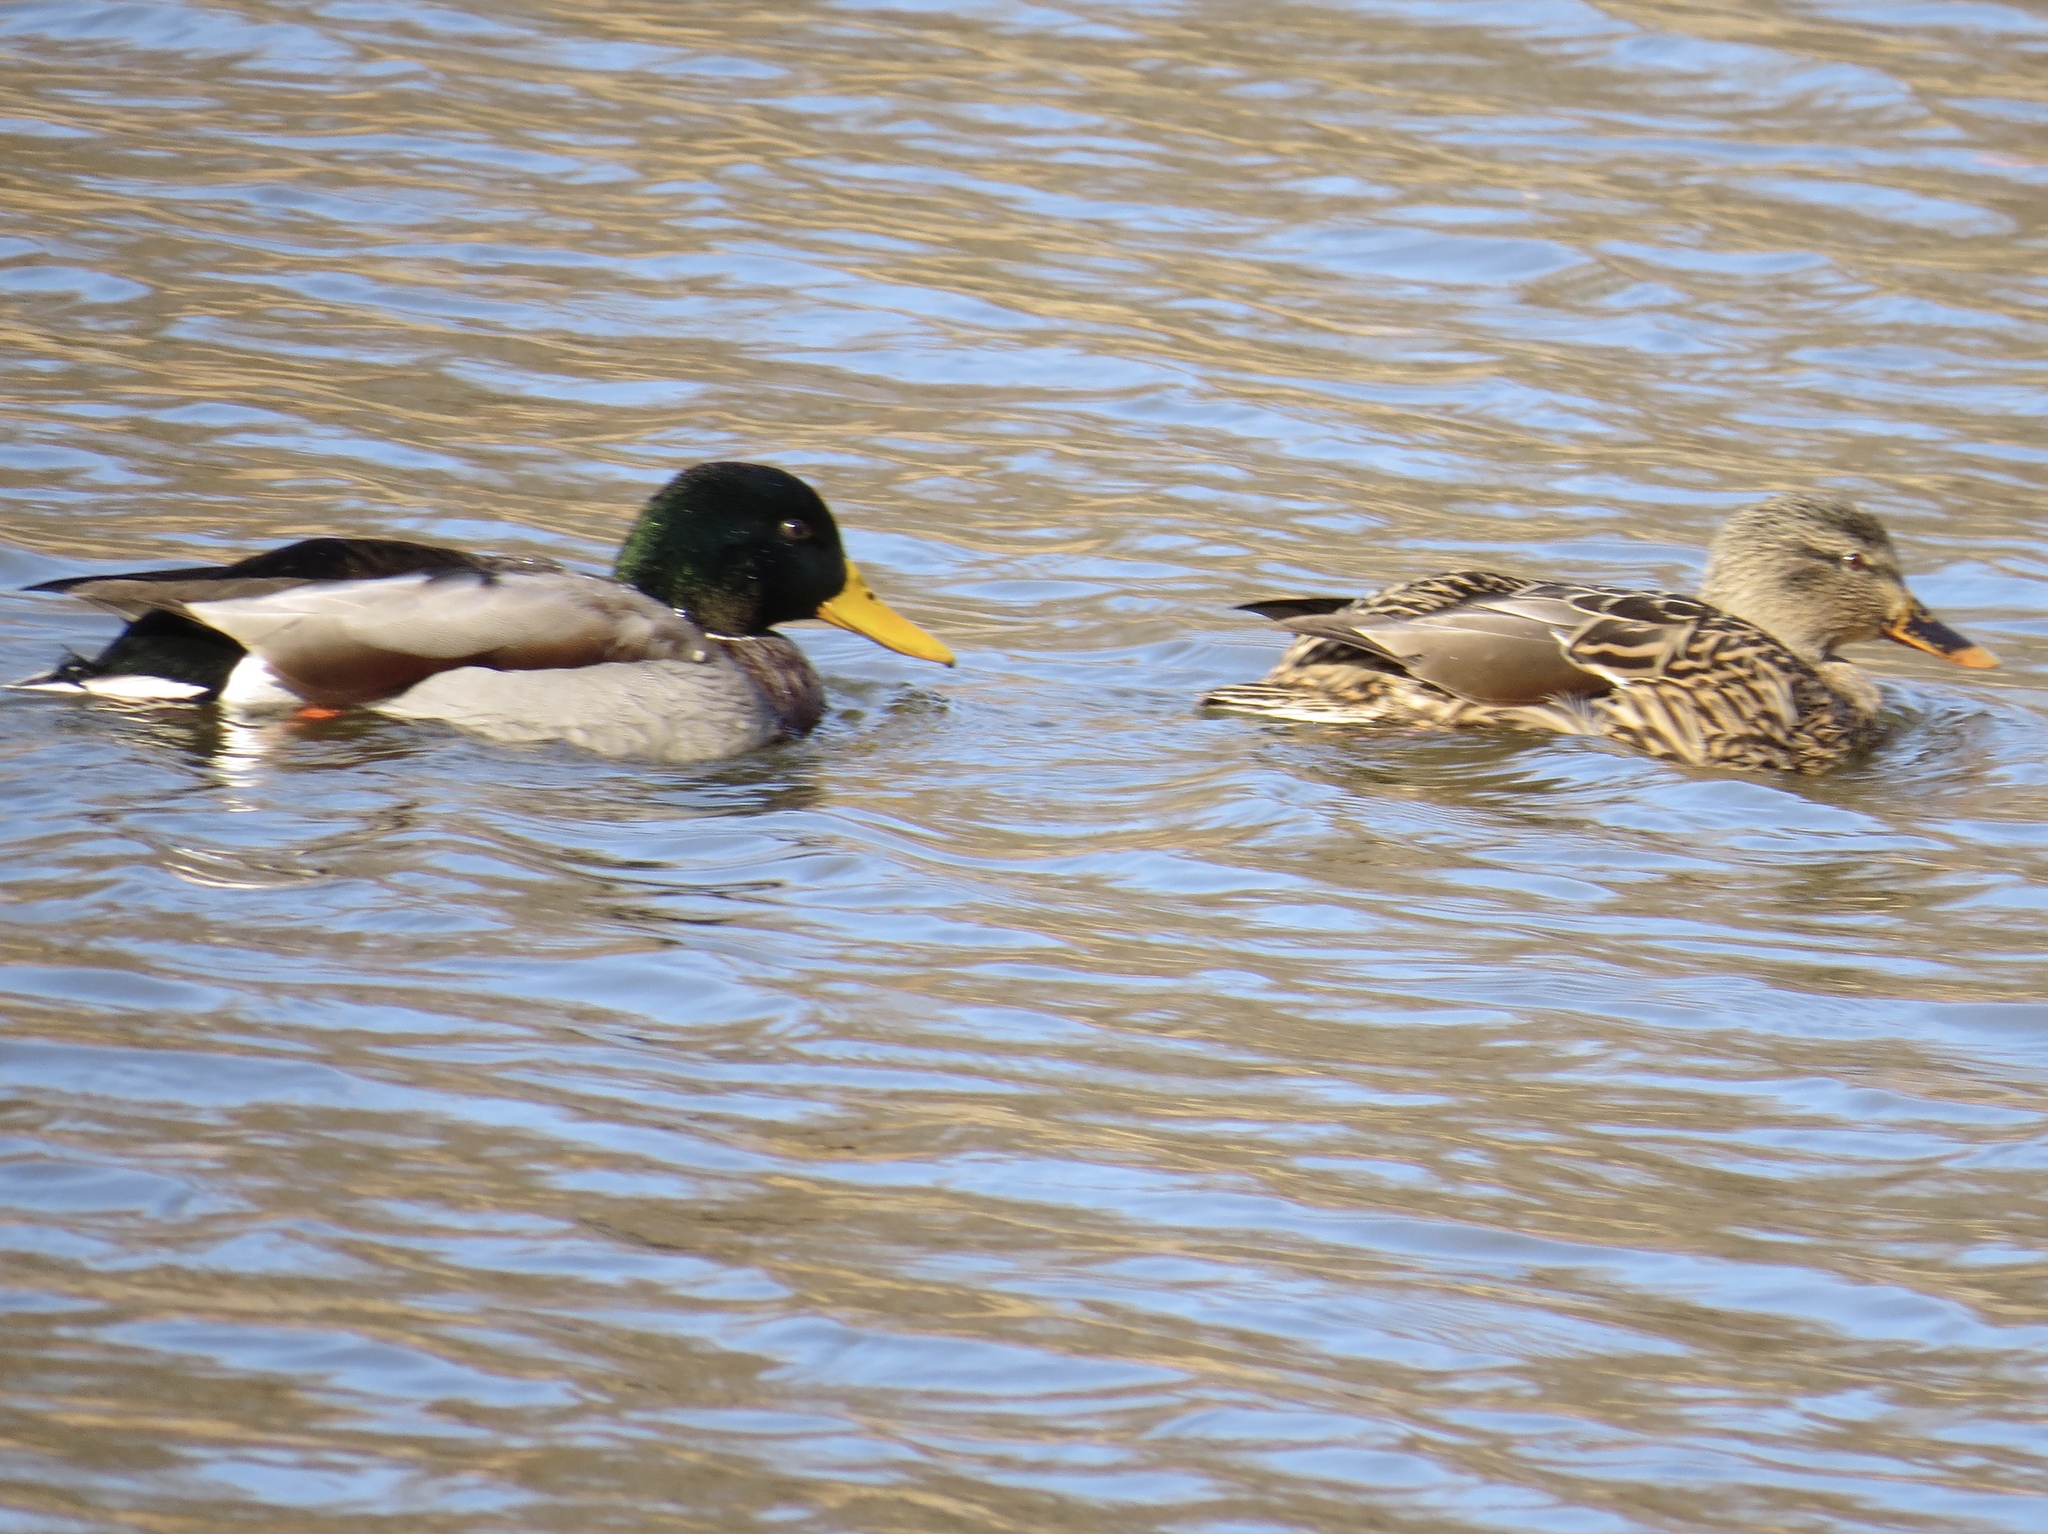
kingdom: Animalia
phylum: Chordata
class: Aves
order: Anseriformes
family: Anatidae
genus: Anas
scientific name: Anas platyrhynchos
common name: Mallard
